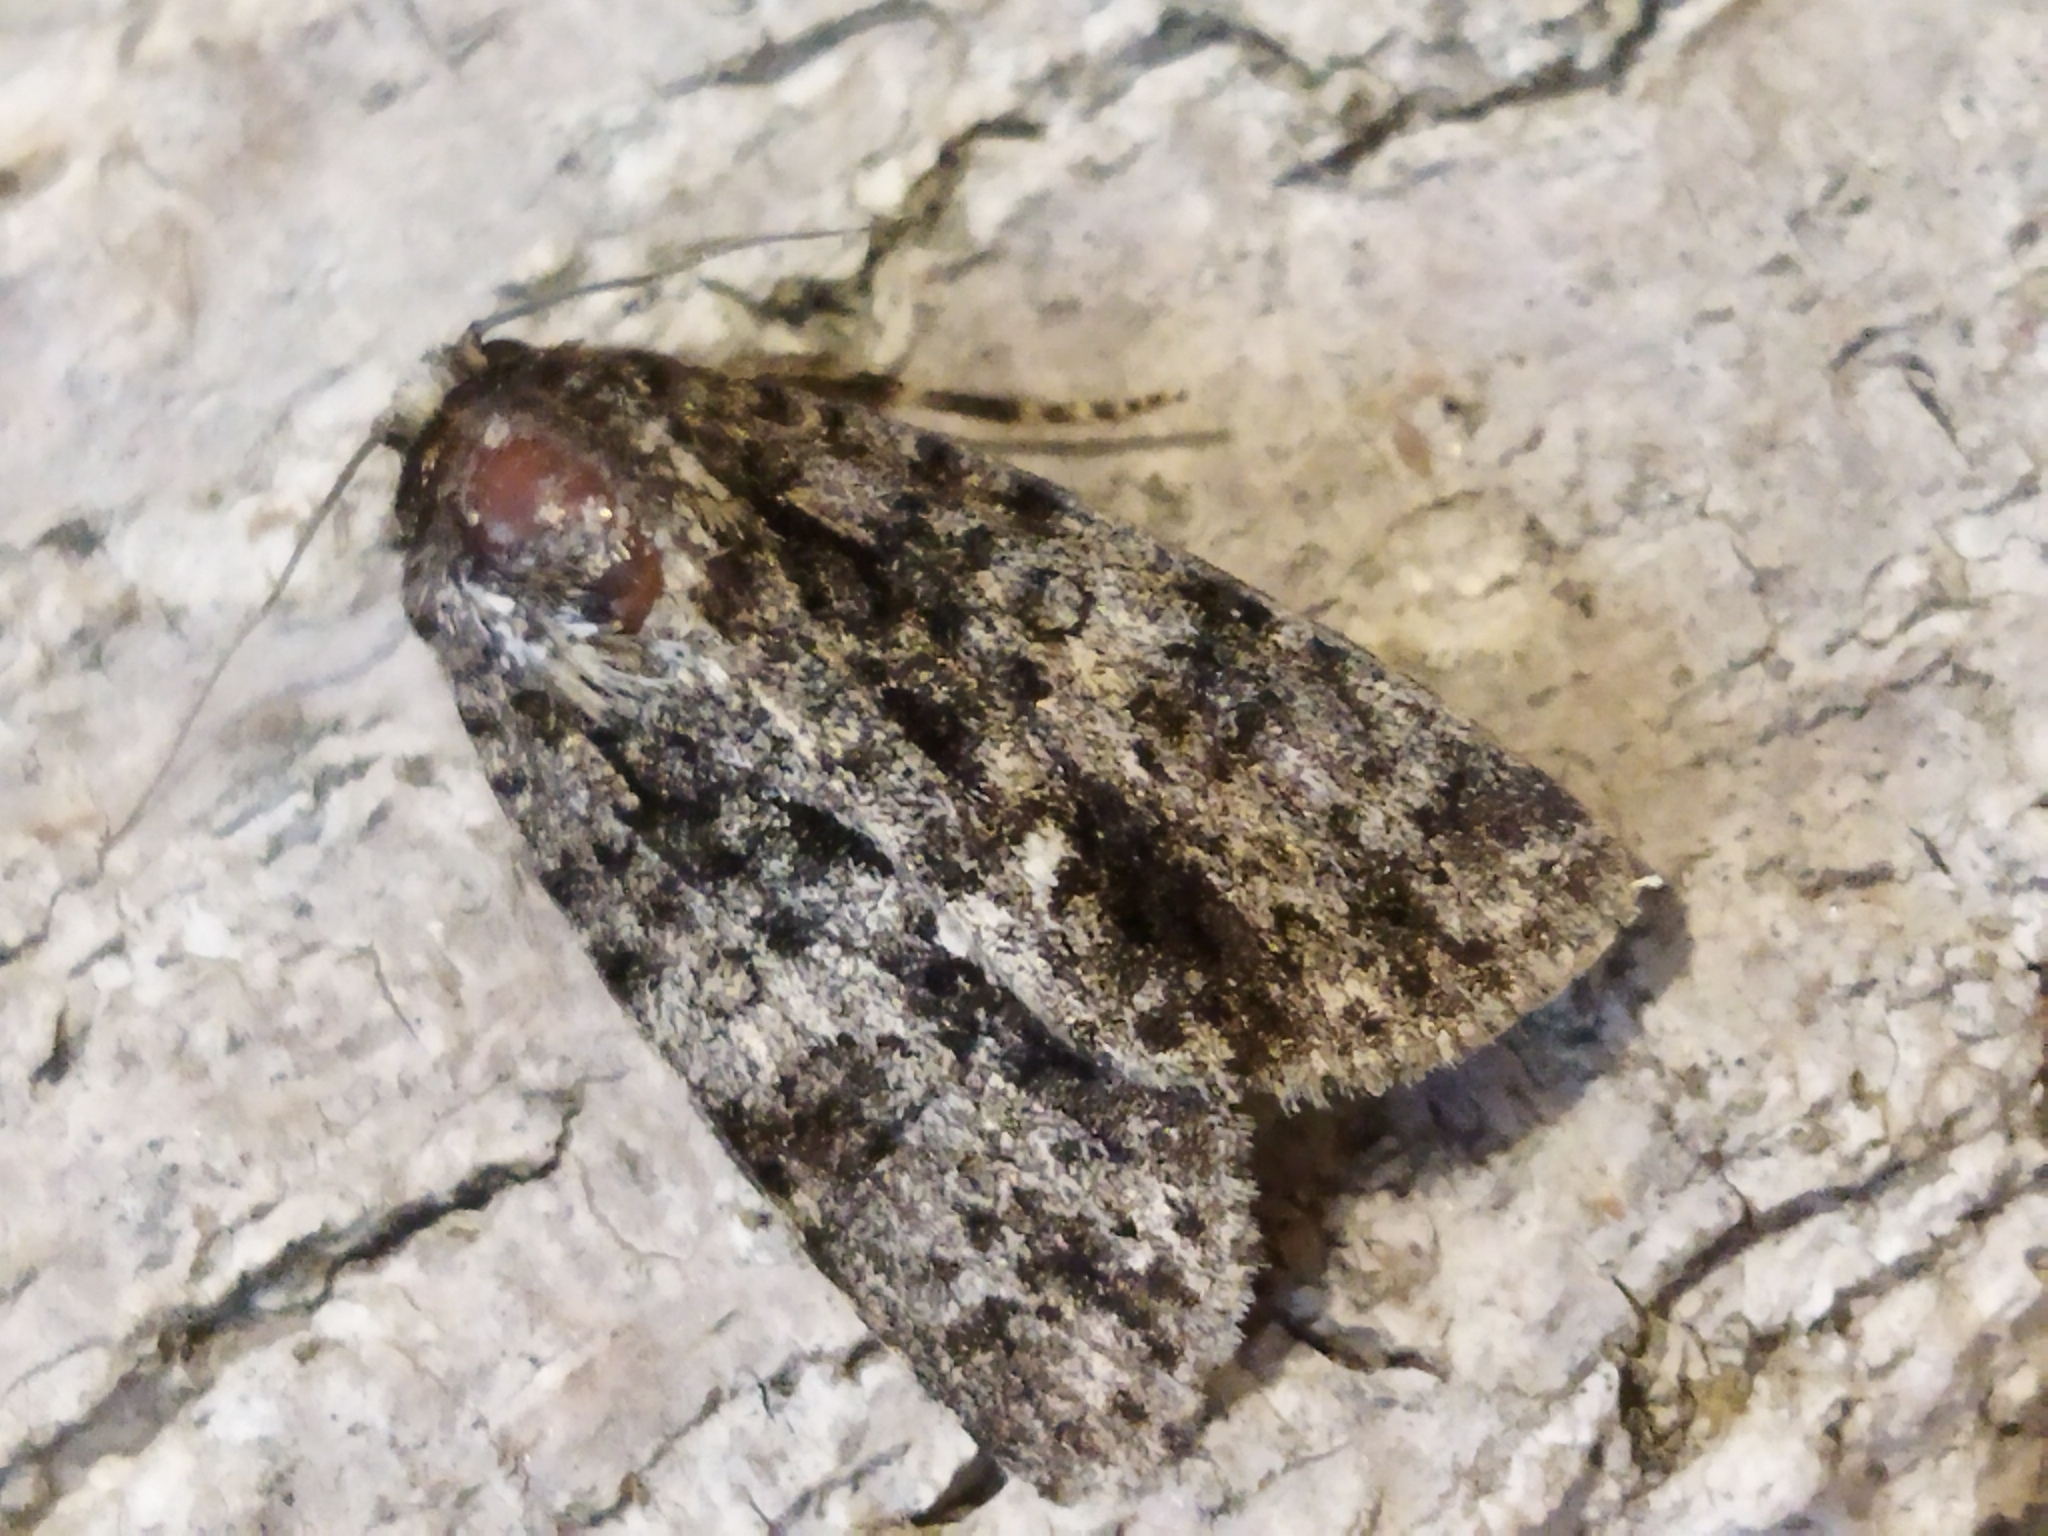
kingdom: Animalia
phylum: Arthropoda
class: Insecta
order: Lepidoptera
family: Noctuidae
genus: Acronicta
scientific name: Acronicta rumicis
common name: Knot grass
